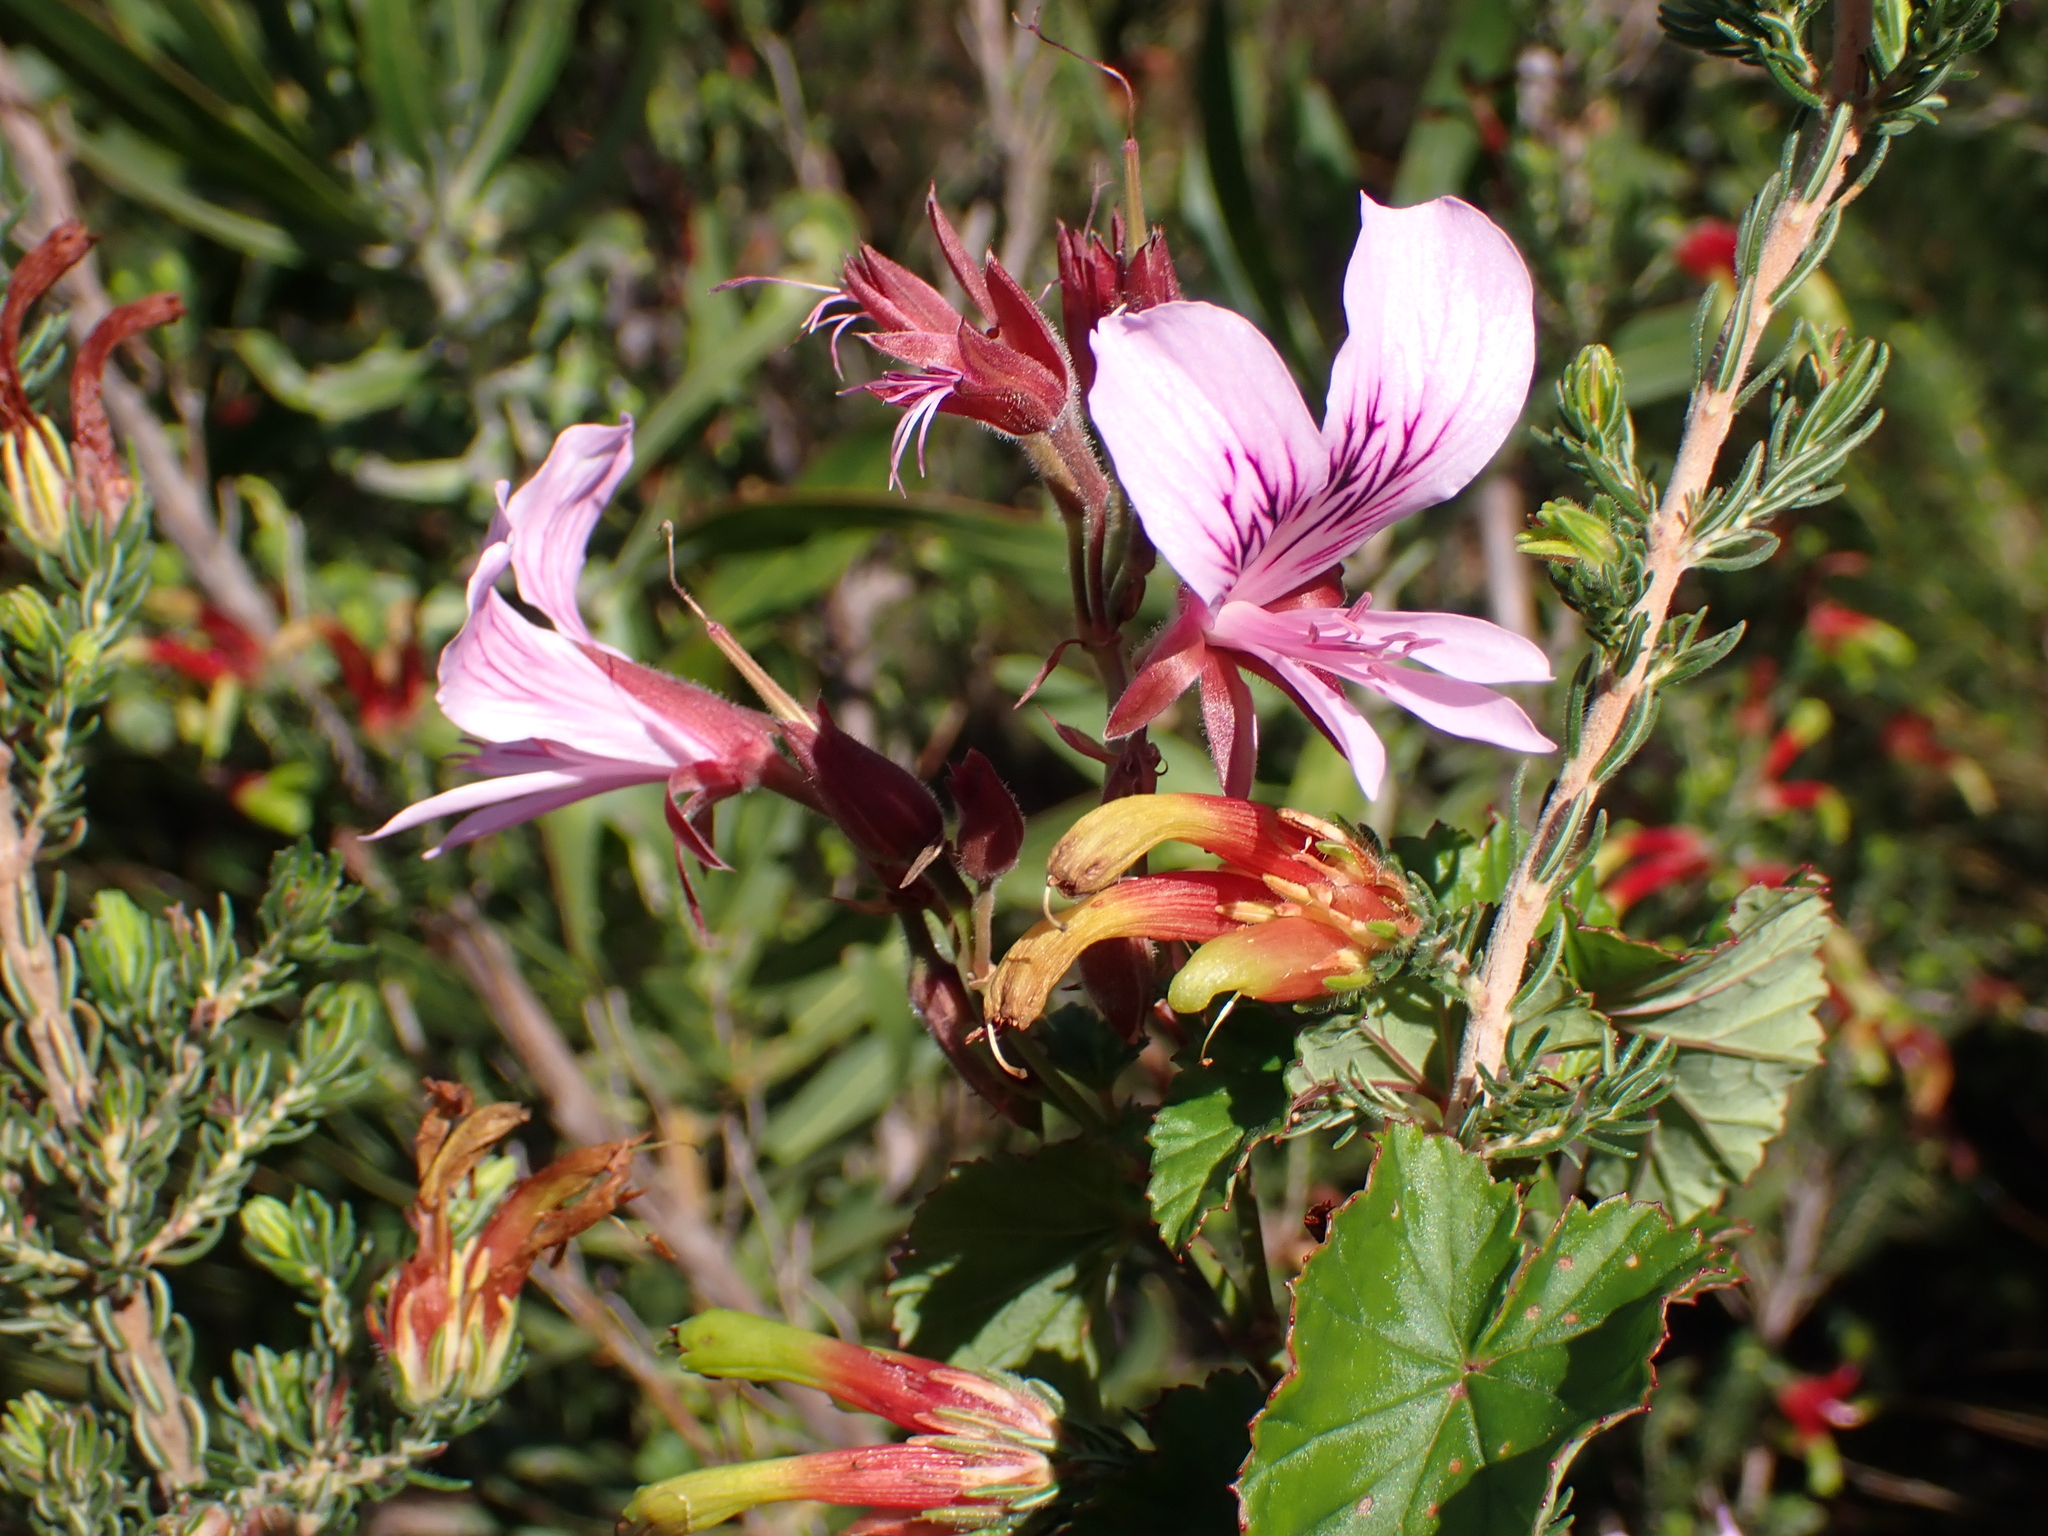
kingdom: Plantae
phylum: Tracheophyta
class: Magnoliopsida
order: Geraniales
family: Geraniaceae
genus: Pelargonium
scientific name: Pelargonium cordifolium
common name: Heart-leaf pelargonium
